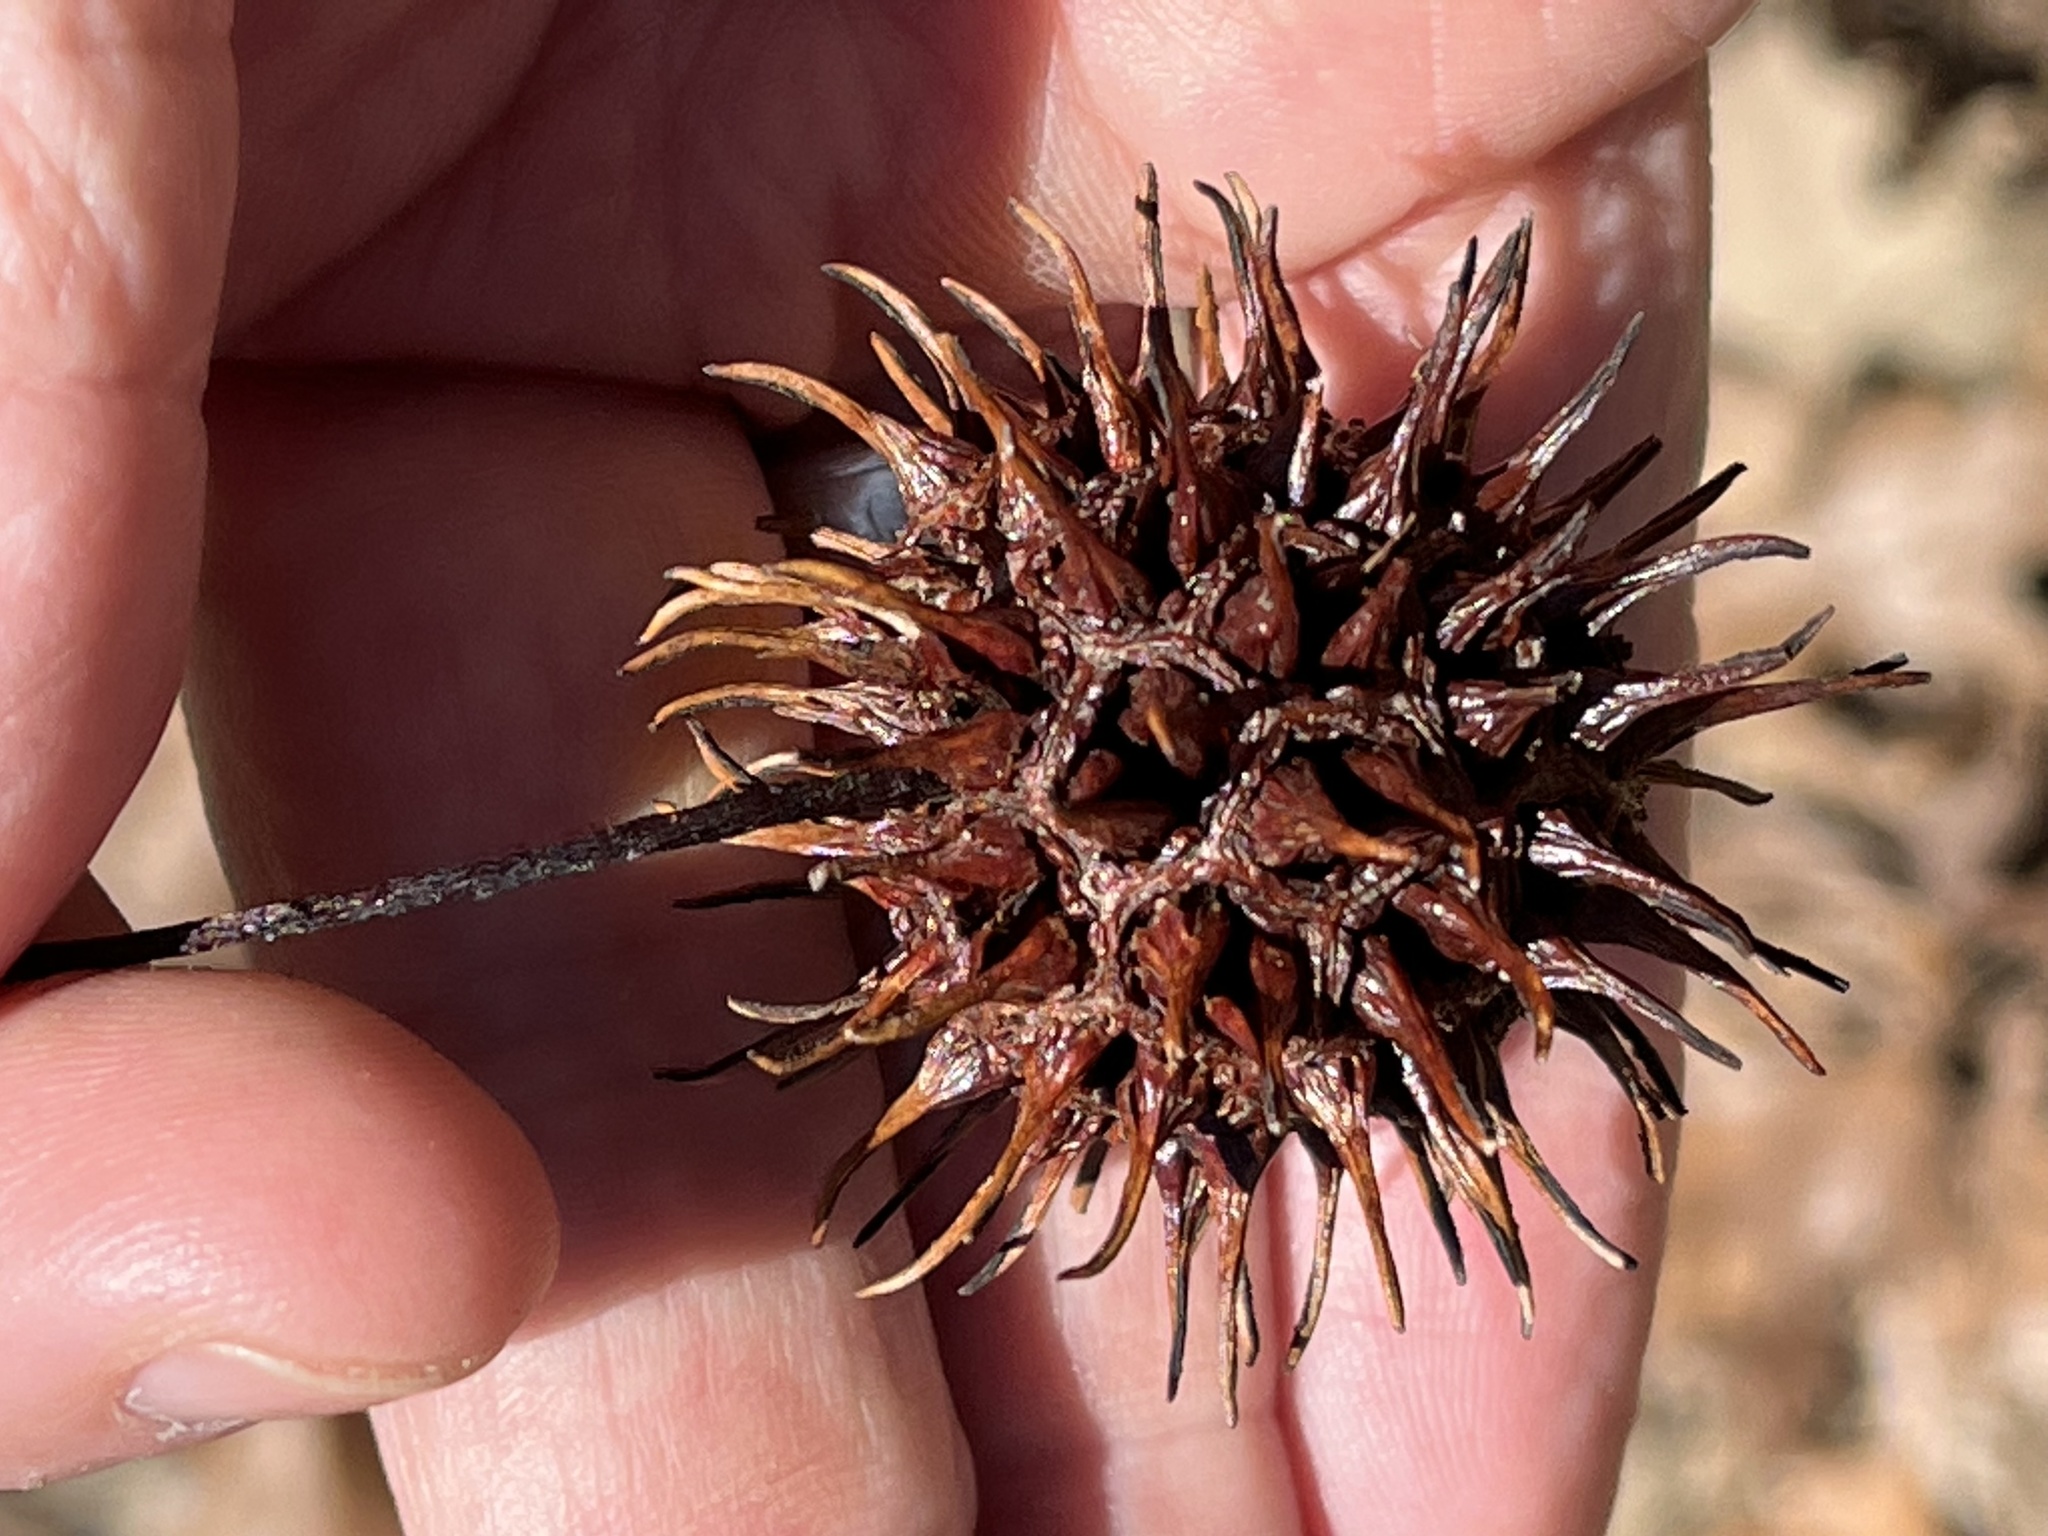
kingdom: Plantae
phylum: Tracheophyta
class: Magnoliopsida
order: Saxifragales
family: Altingiaceae
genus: Liquidambar
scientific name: Liquidambar styraciflua
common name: Sweet gum
